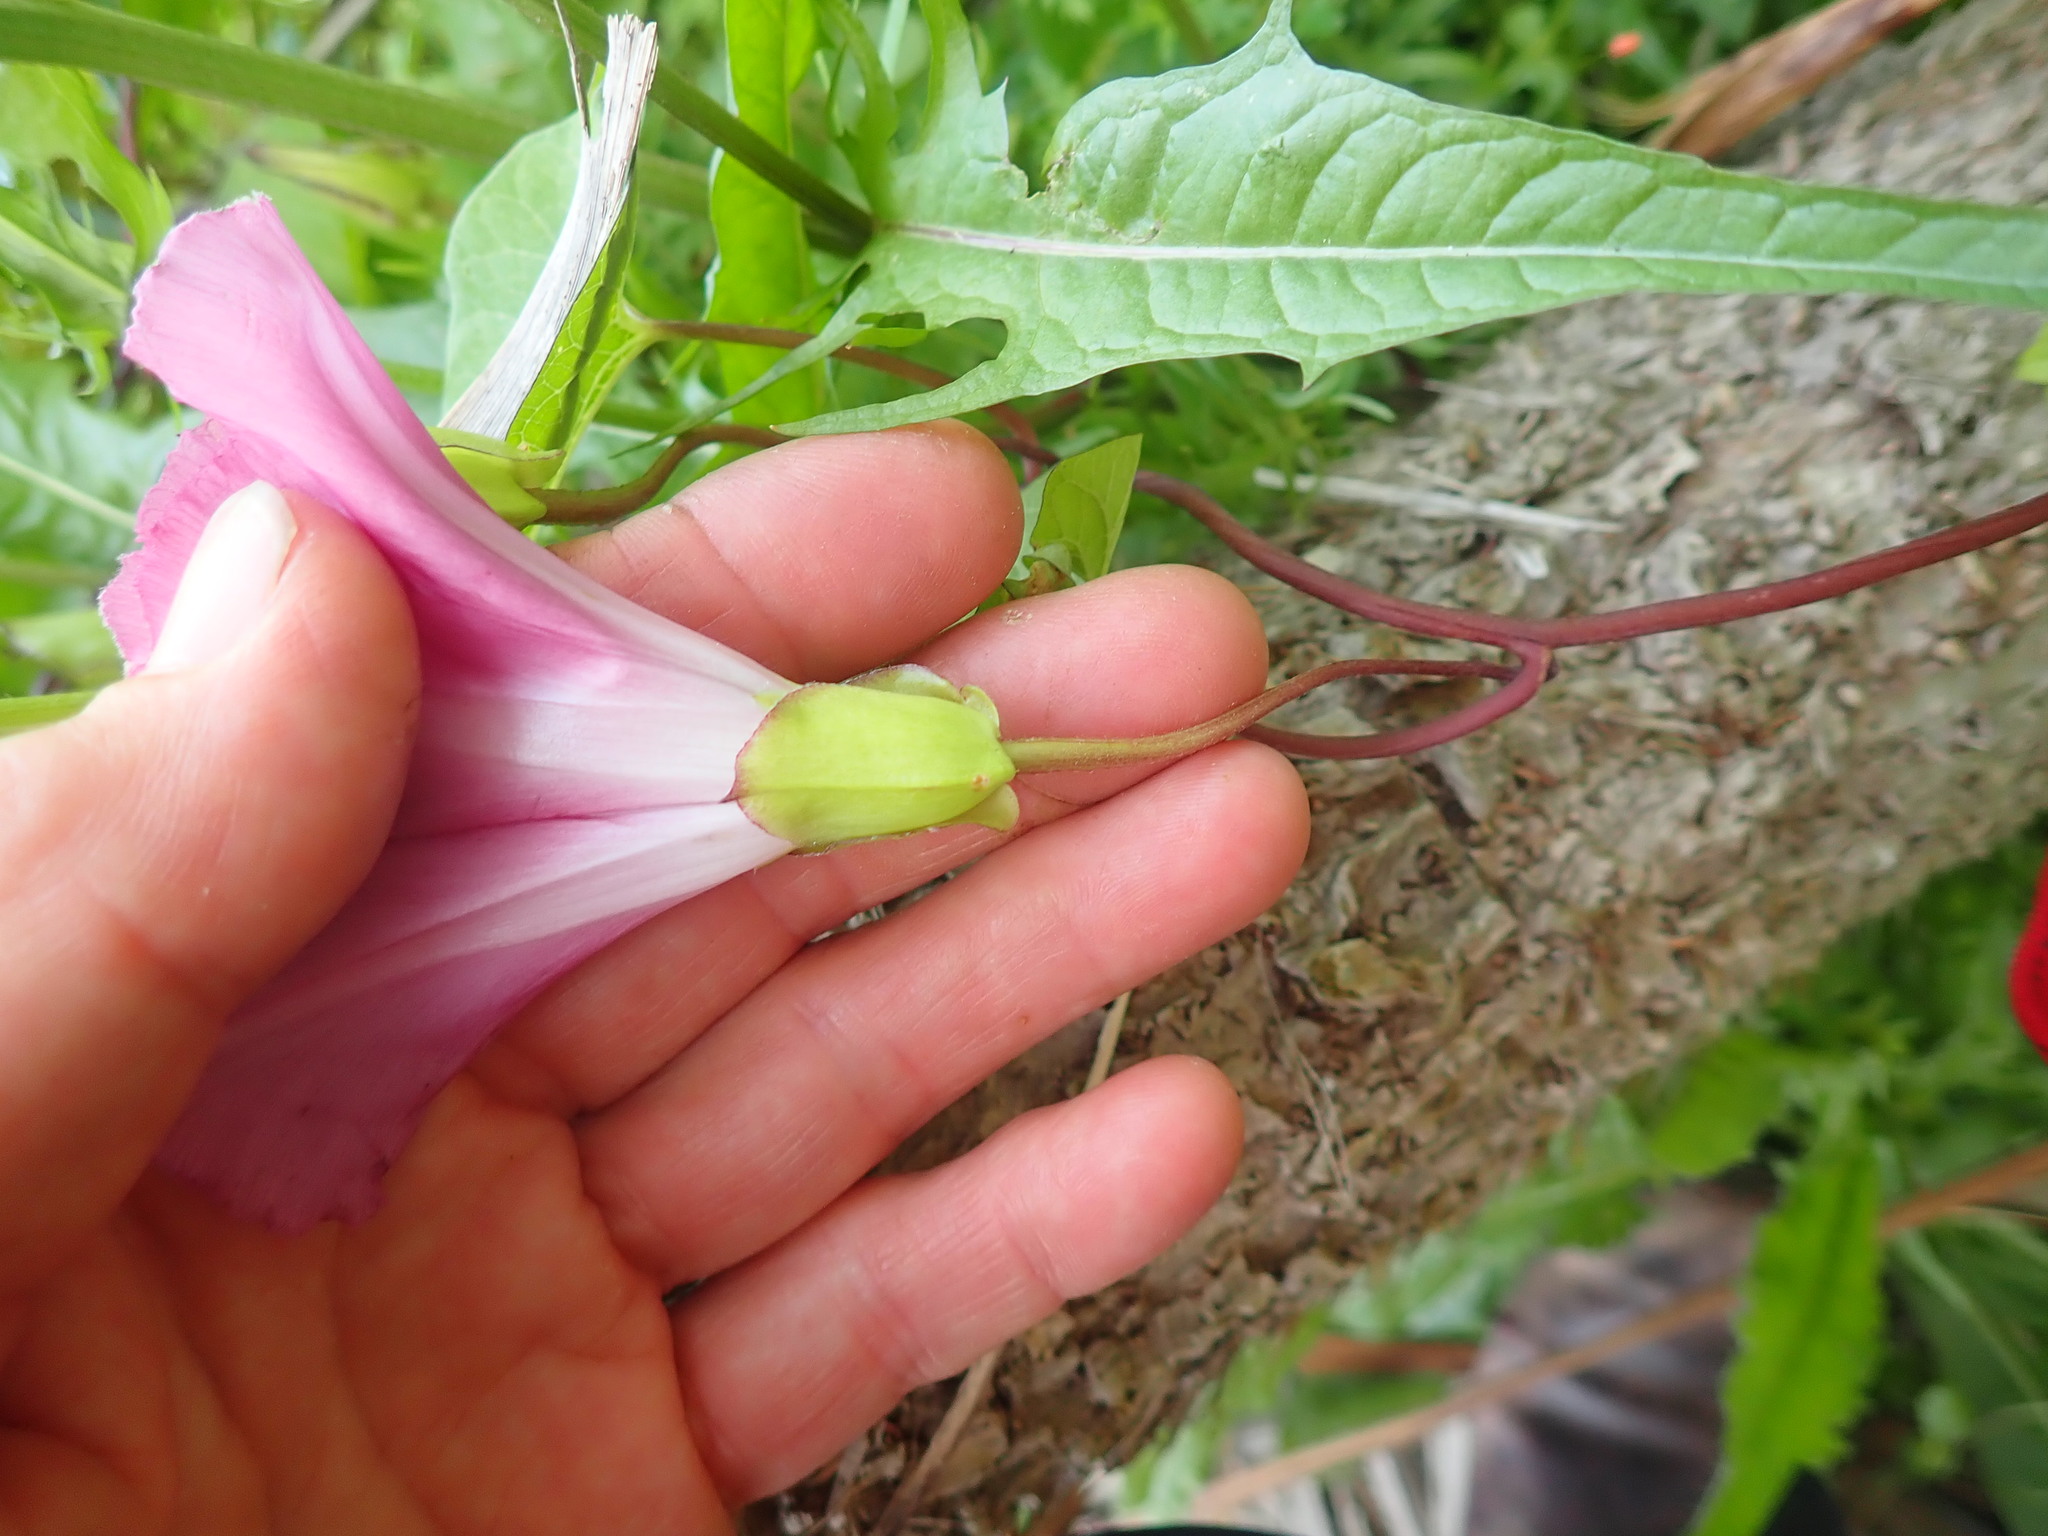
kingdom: Plantae
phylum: Tracheophyta
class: Magnoliopsida
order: Solanales
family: Convolvulaceae
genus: Calystegia
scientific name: Calystegia sepium
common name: Hedge bindweed
